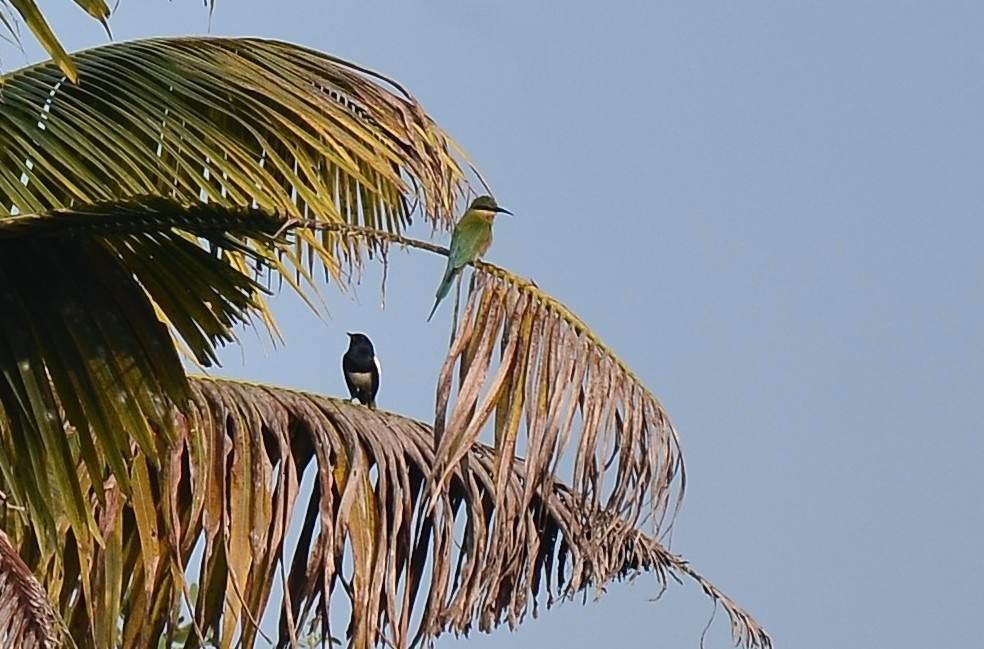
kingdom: Animalia
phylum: Chordata
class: Aves
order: Coraciiformes
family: Meropidae
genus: Merops
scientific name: Merops philippinus
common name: Blue-tailed bee-eater
